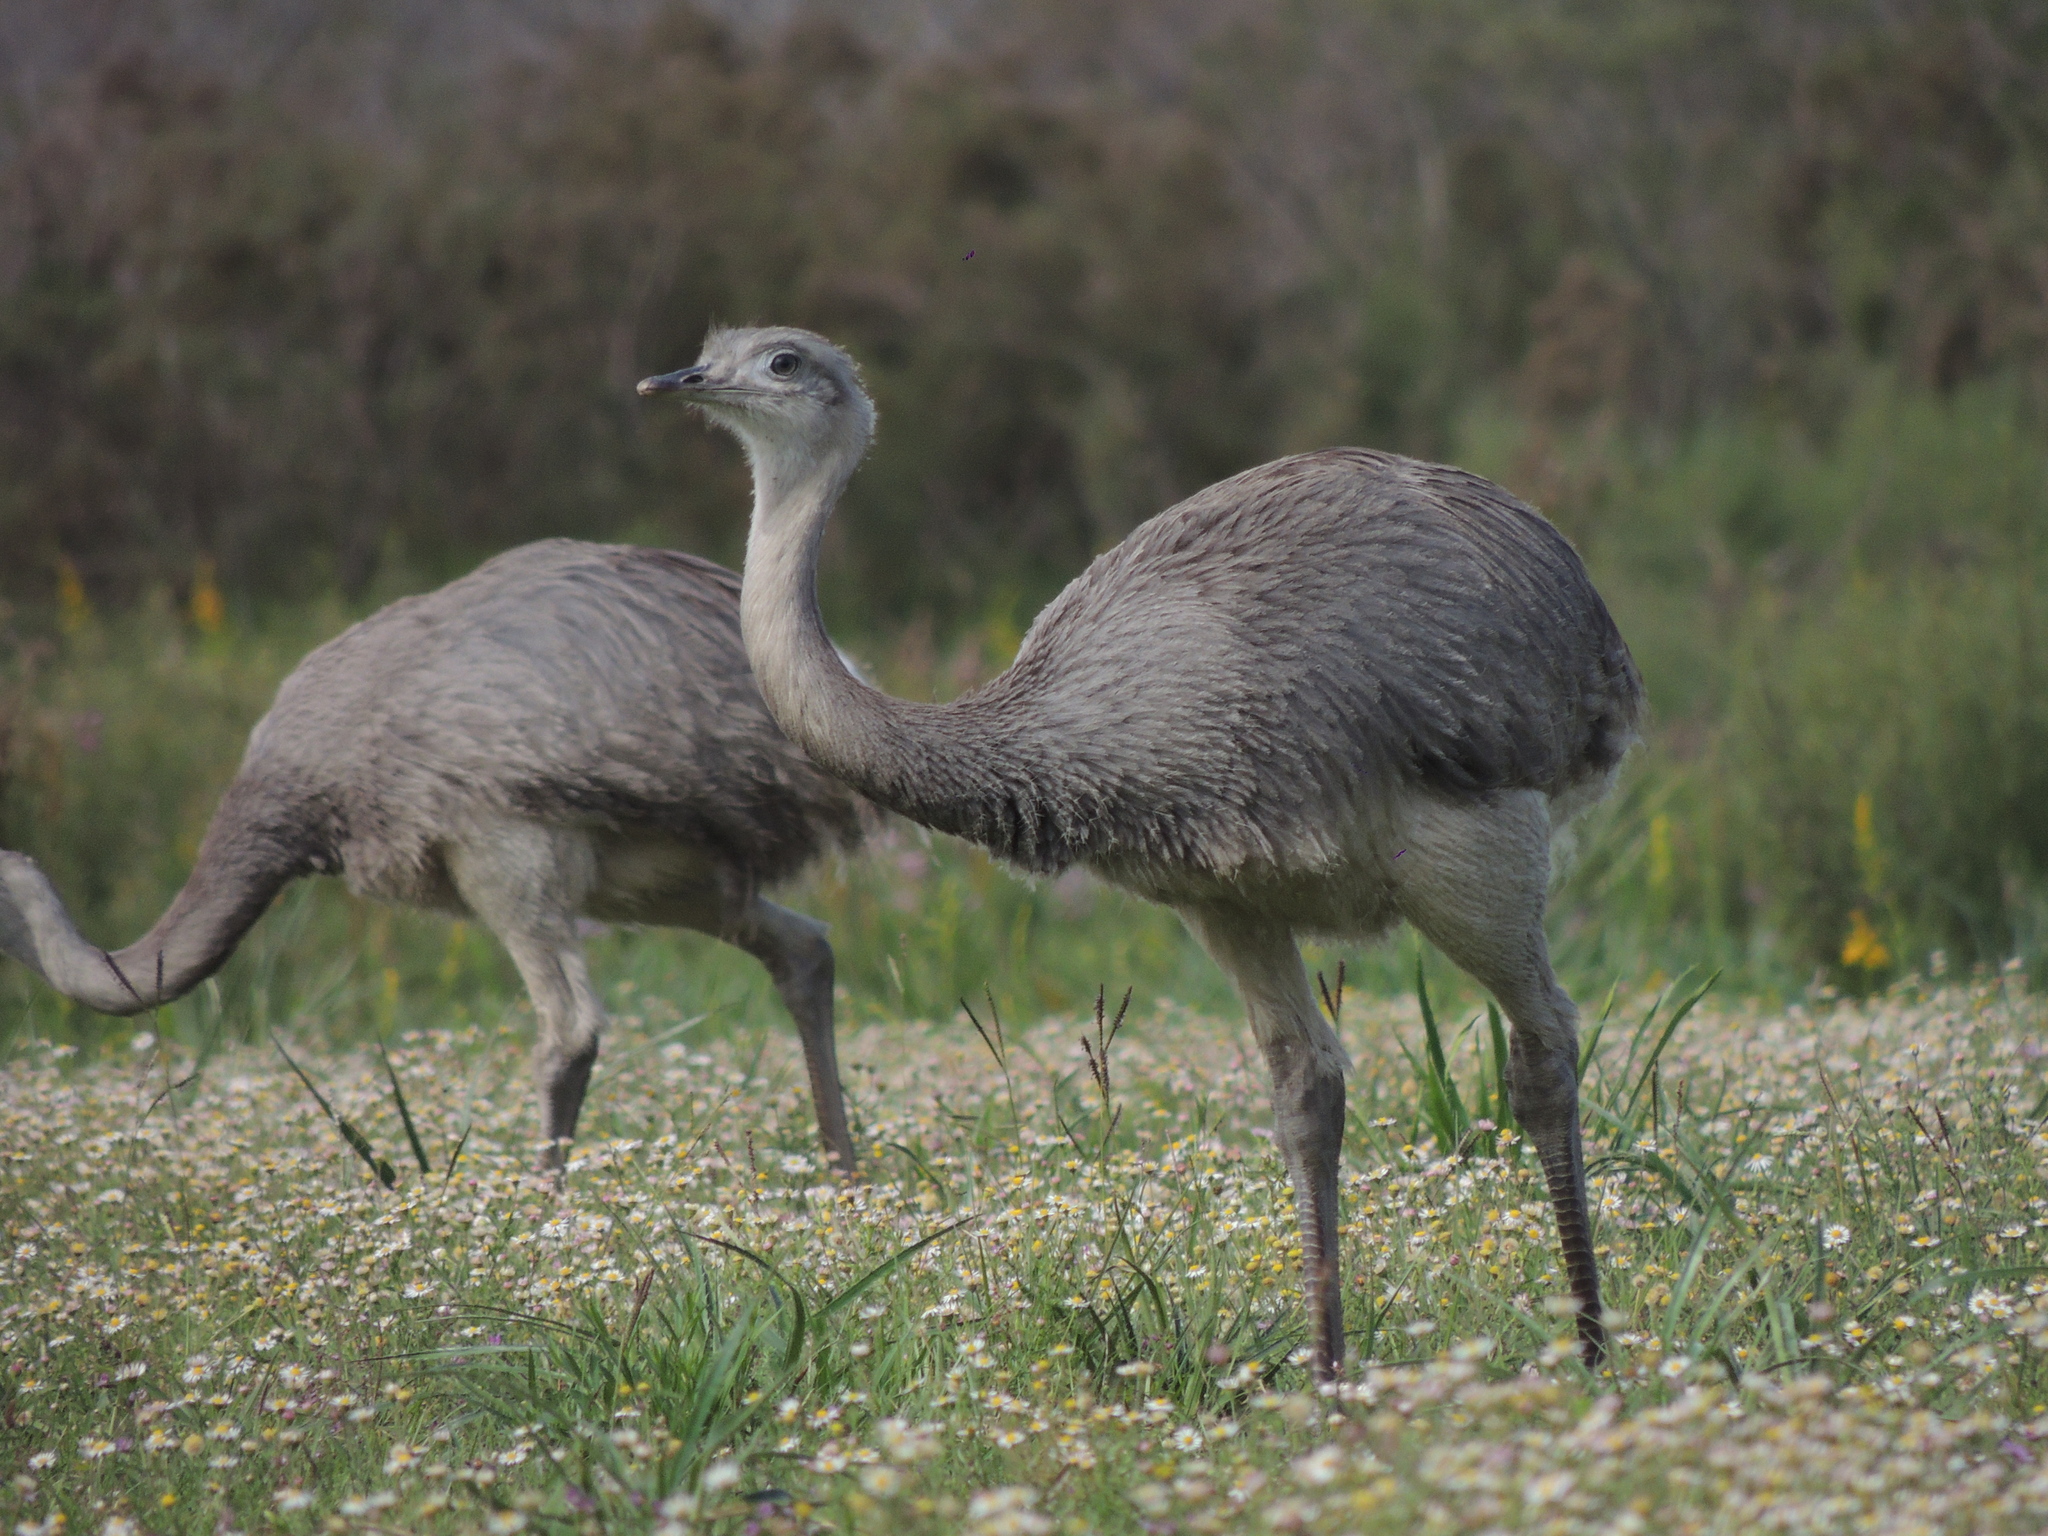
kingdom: Animalia
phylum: Chordata
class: Aves
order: Rheiformes
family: Rheidae
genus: Rhea
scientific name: Rhea americana
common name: Greater rhea
